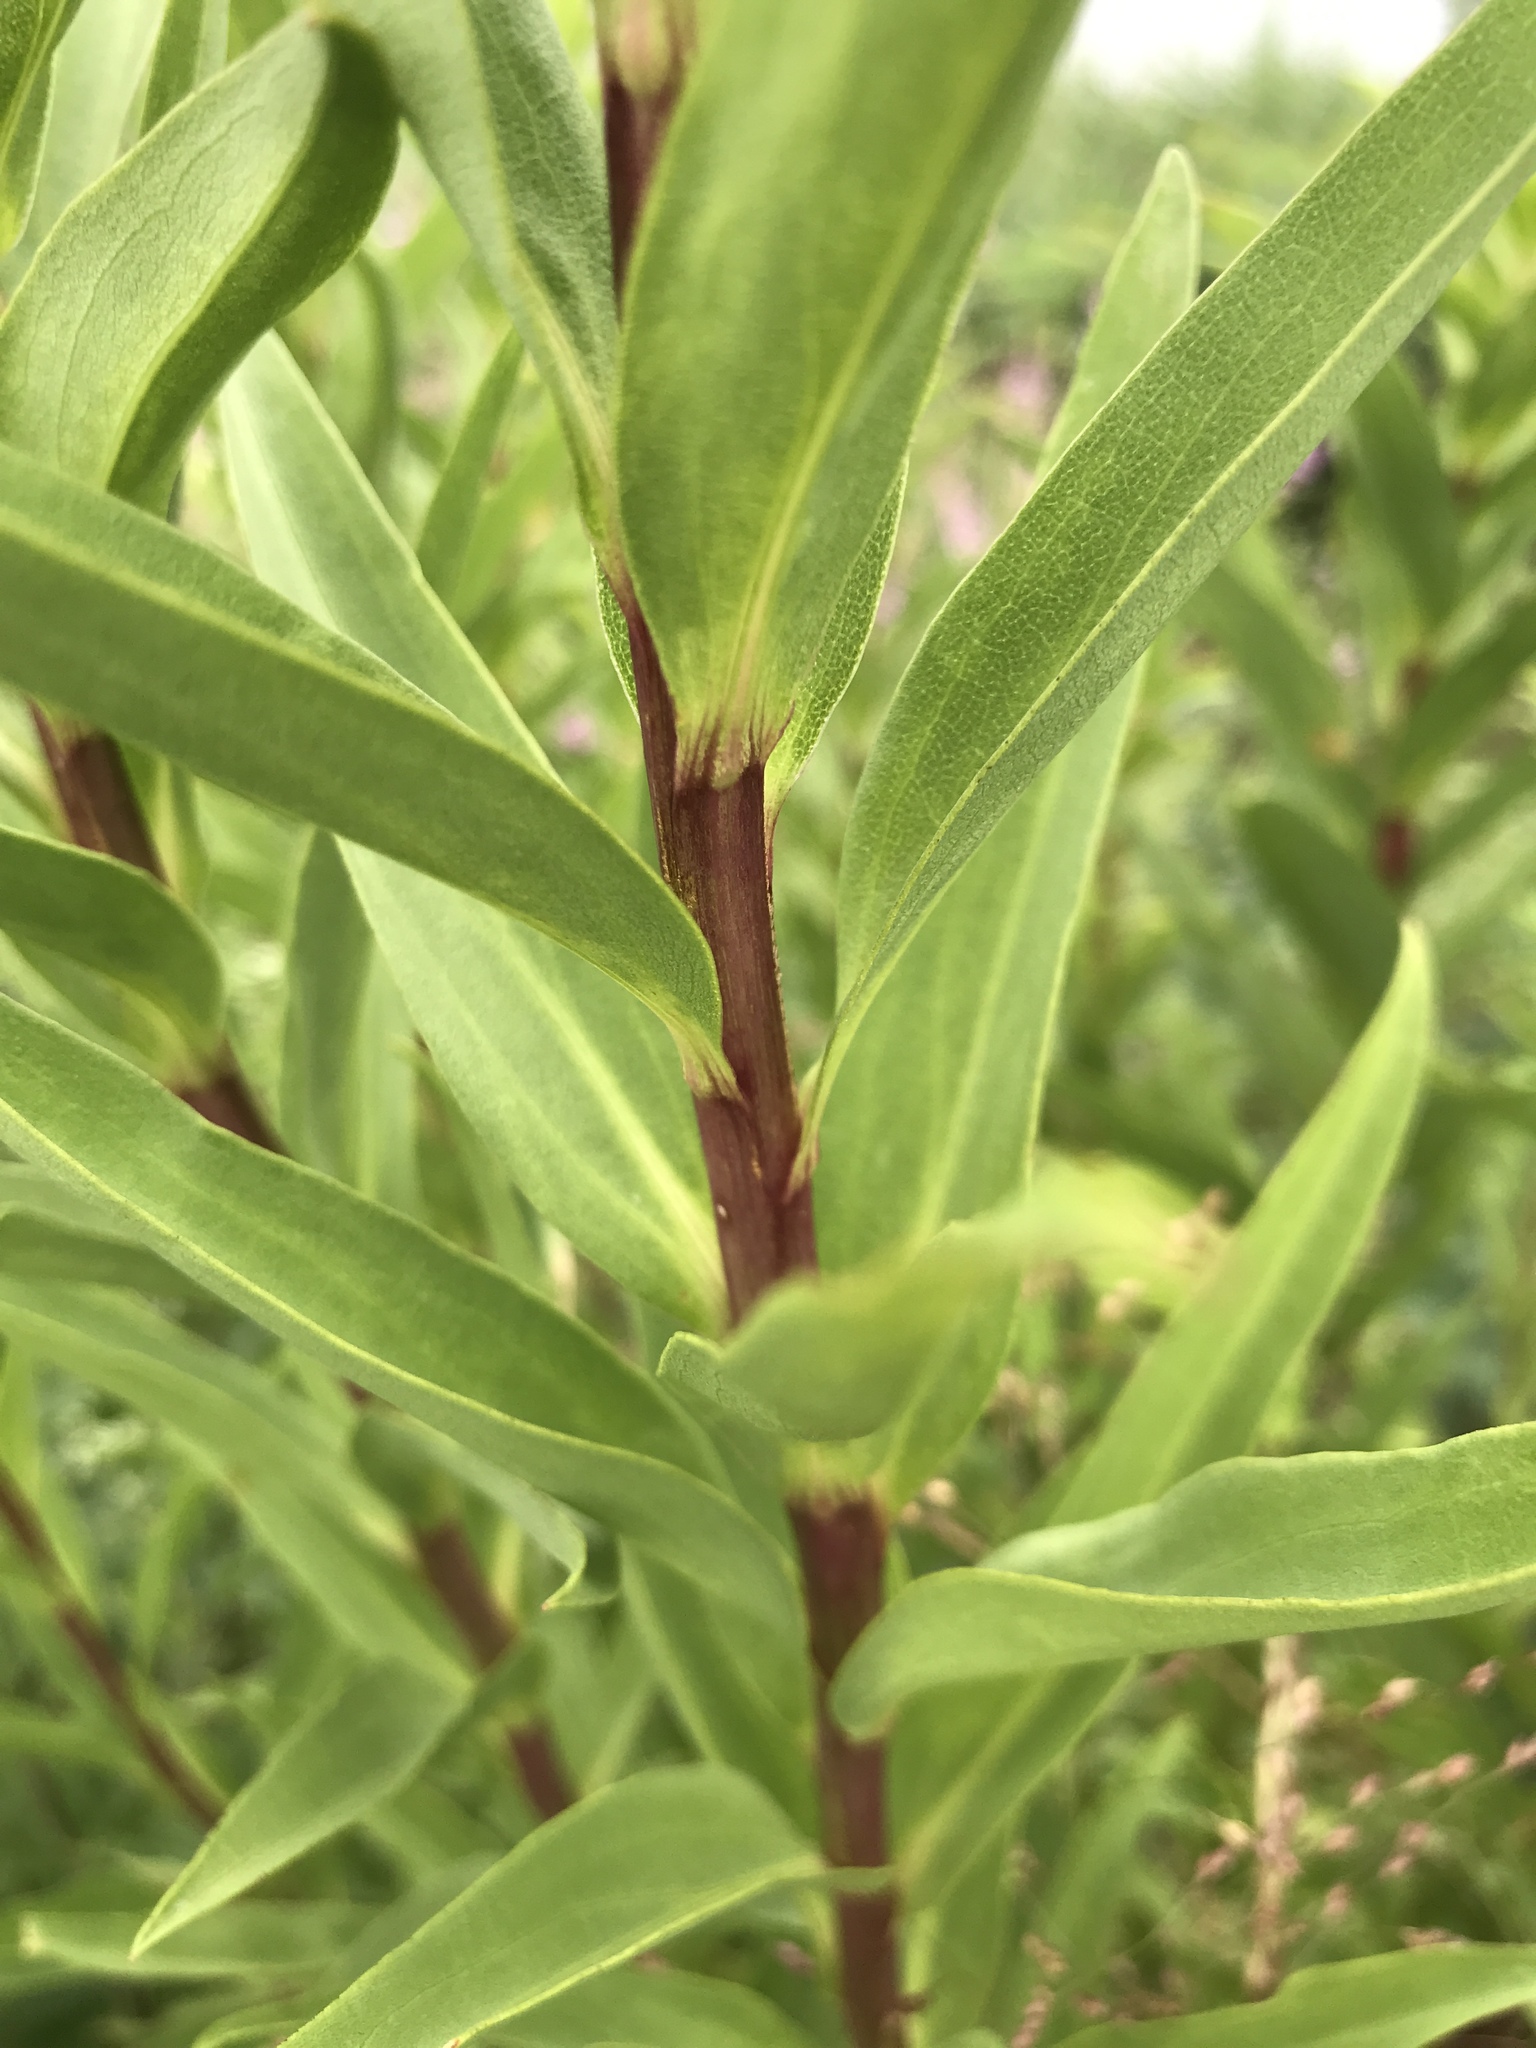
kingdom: Plantae
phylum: Tracheophyta
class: Magnoliopsida
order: Asterales
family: Asteraceae
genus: Solidago
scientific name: Solidago sempervirens
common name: Salt-marsh goldenrod
